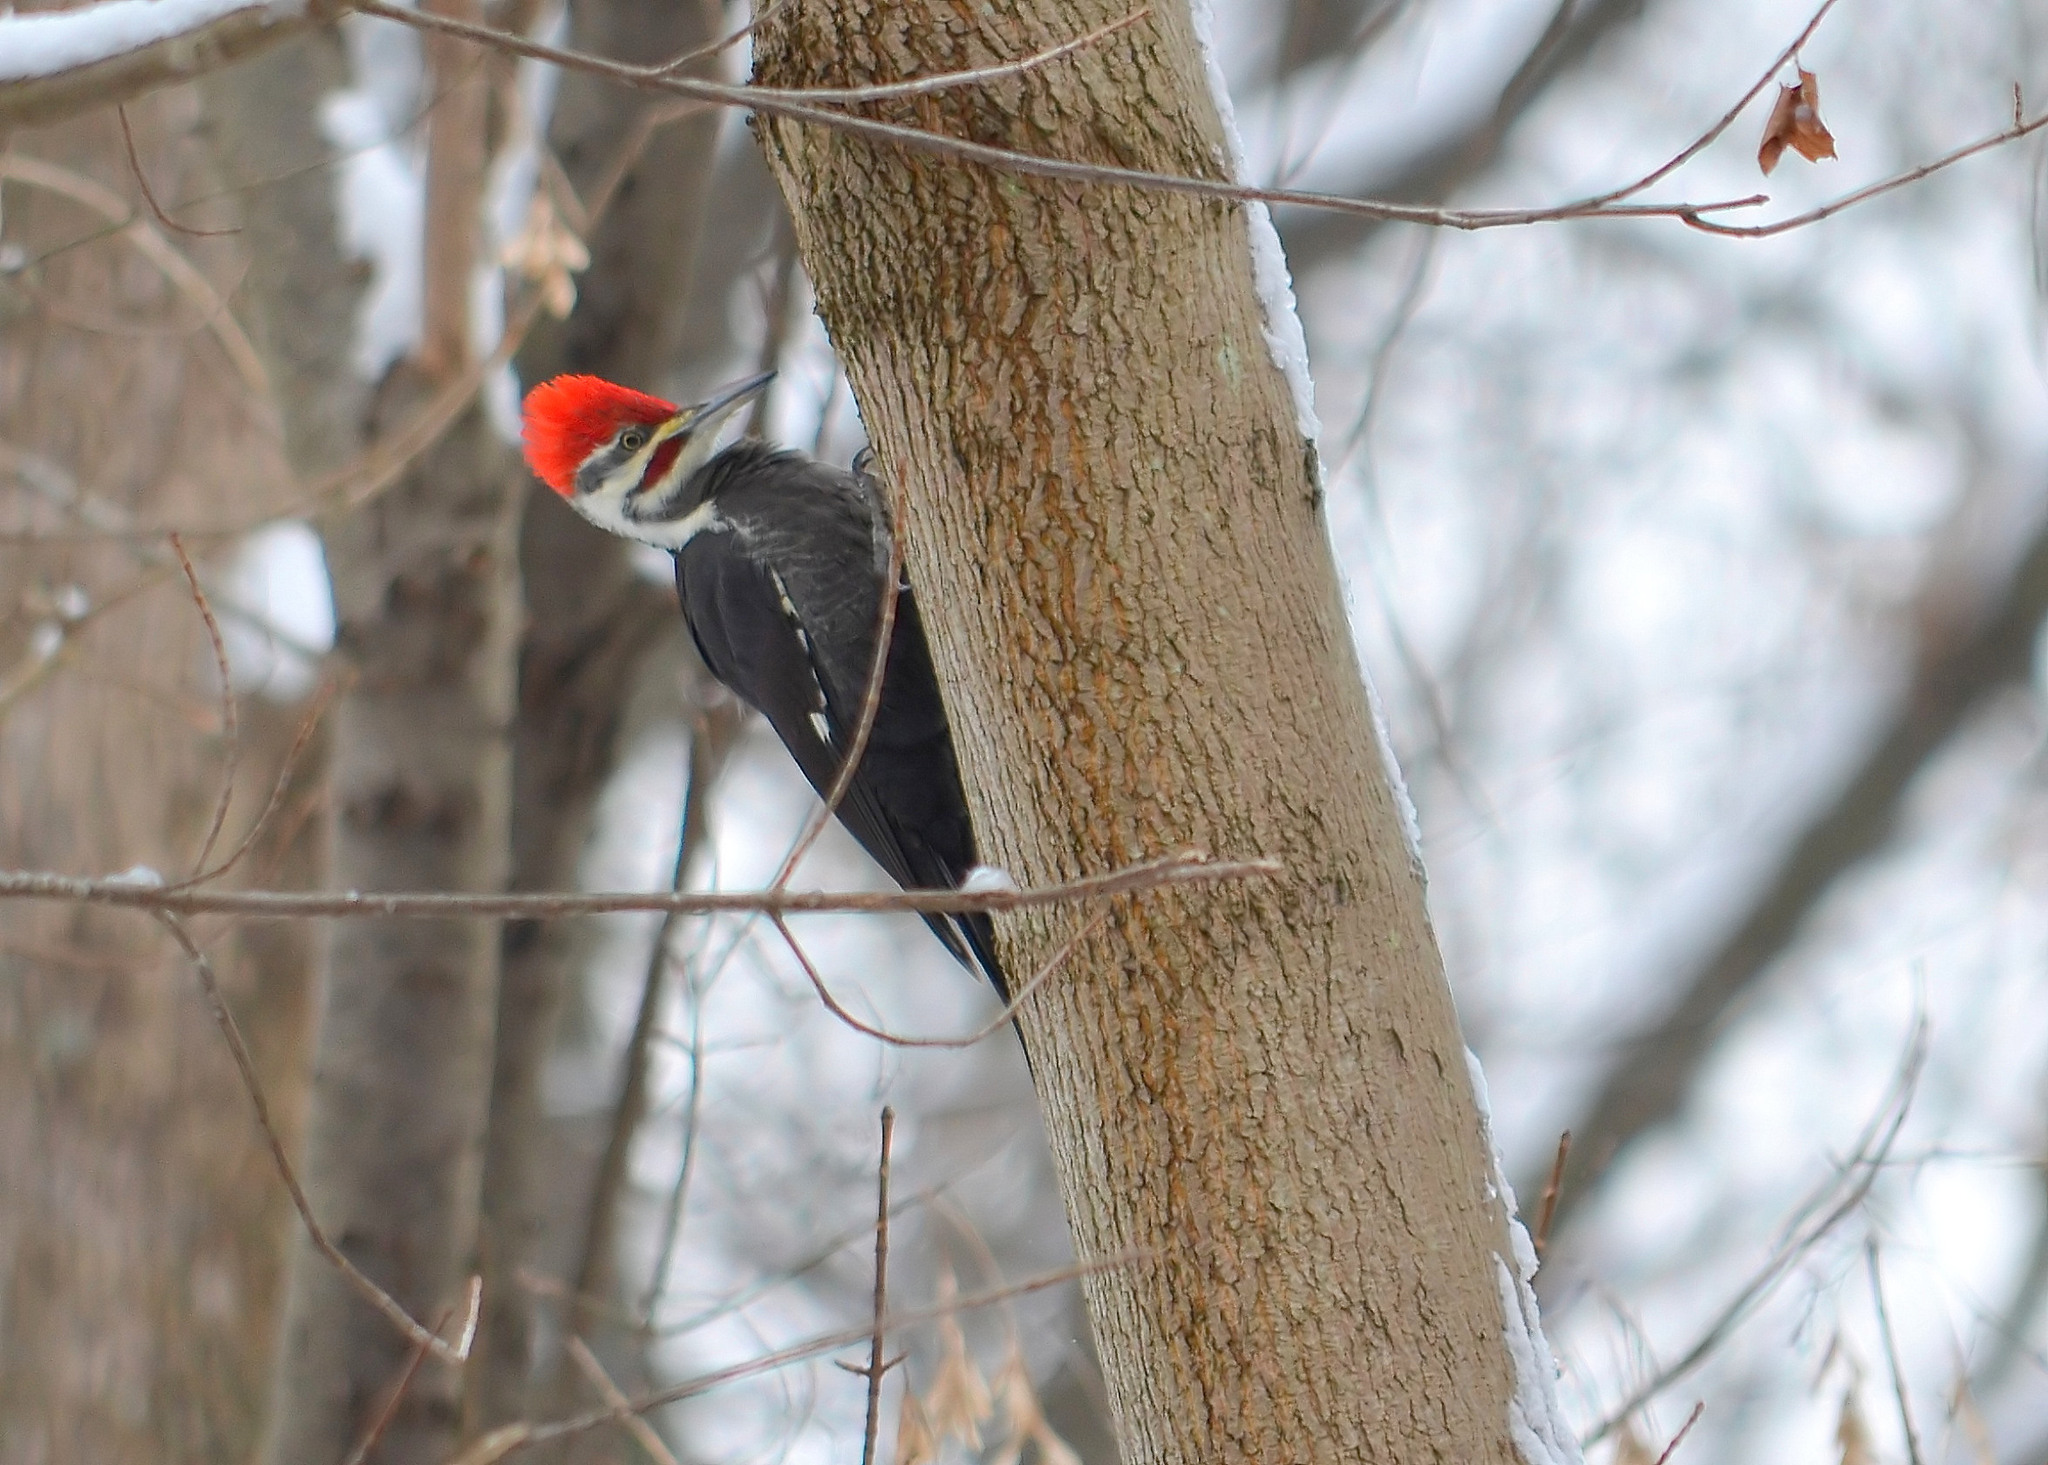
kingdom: Animalia
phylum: Chordata
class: Aves
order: Piciformes
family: Picidae
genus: Dryocopus
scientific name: Dryocopus pileatus
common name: Pileated woodpecker
